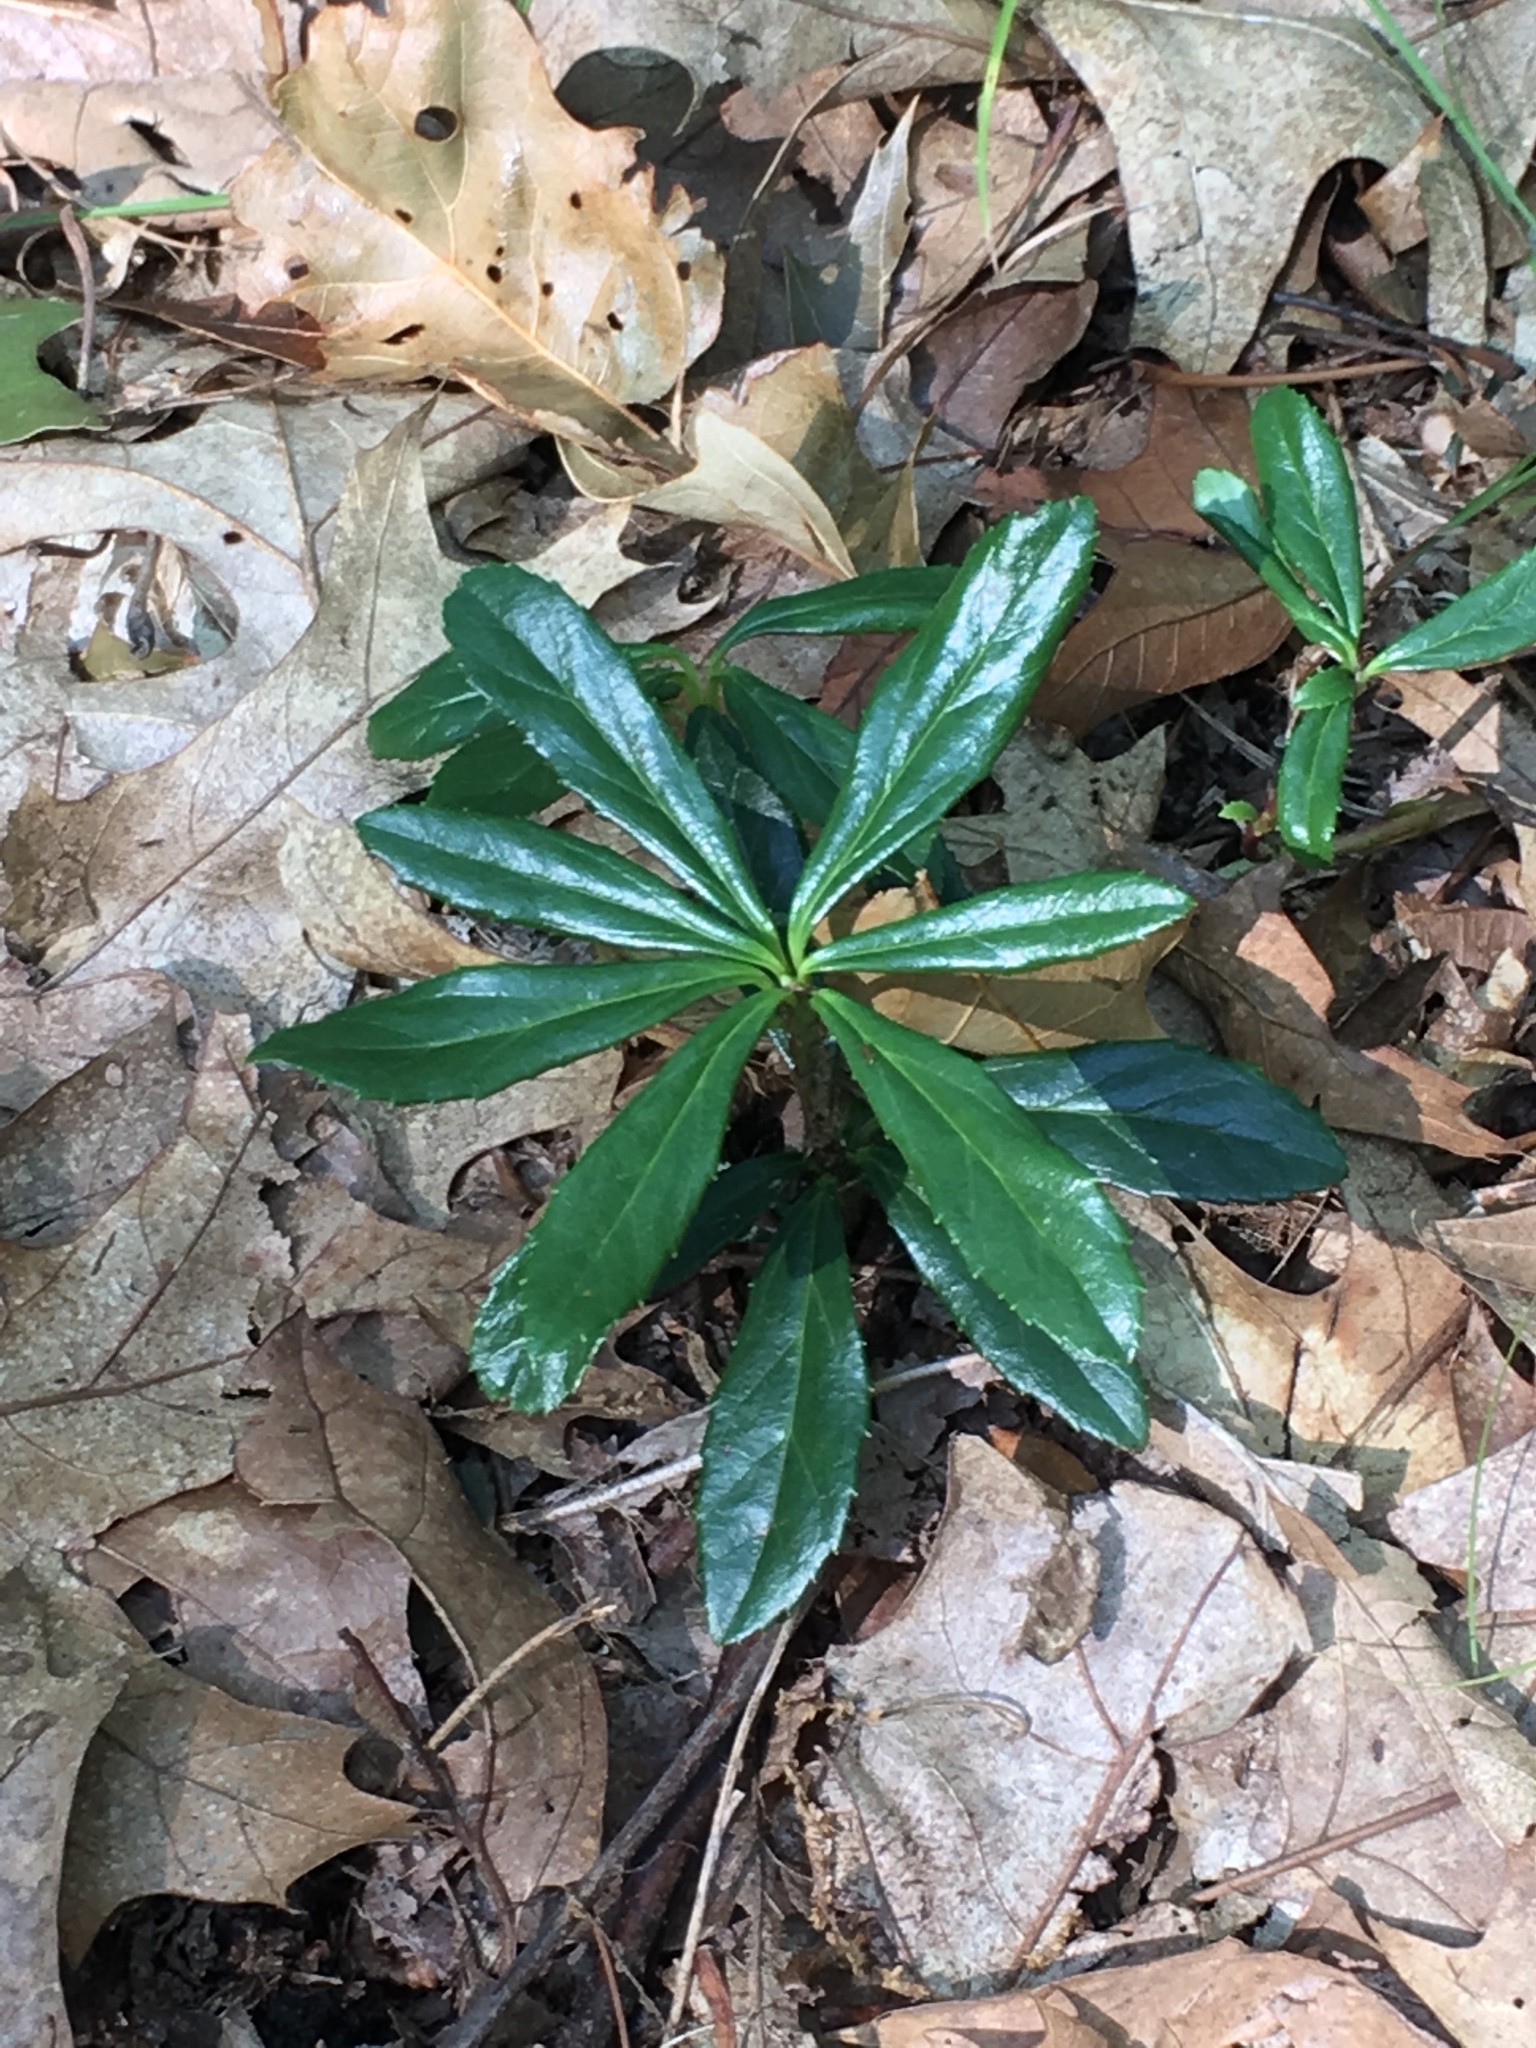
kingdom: Plantae
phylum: Tracheophyta
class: Magnoliopsida
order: Ericales
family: Ericaceae
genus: Chimaphila
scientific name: Chimaphila umbellata
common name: Pipsissewa
